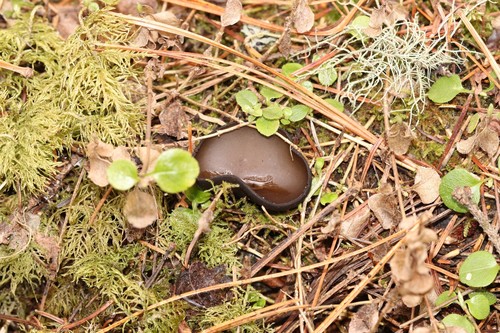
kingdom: Fungi
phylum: Ascomycota
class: Pezizomycetes
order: Pezizales
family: Sarcosomataceae
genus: Pseudoplectania
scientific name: Pseudoplectania melaena
